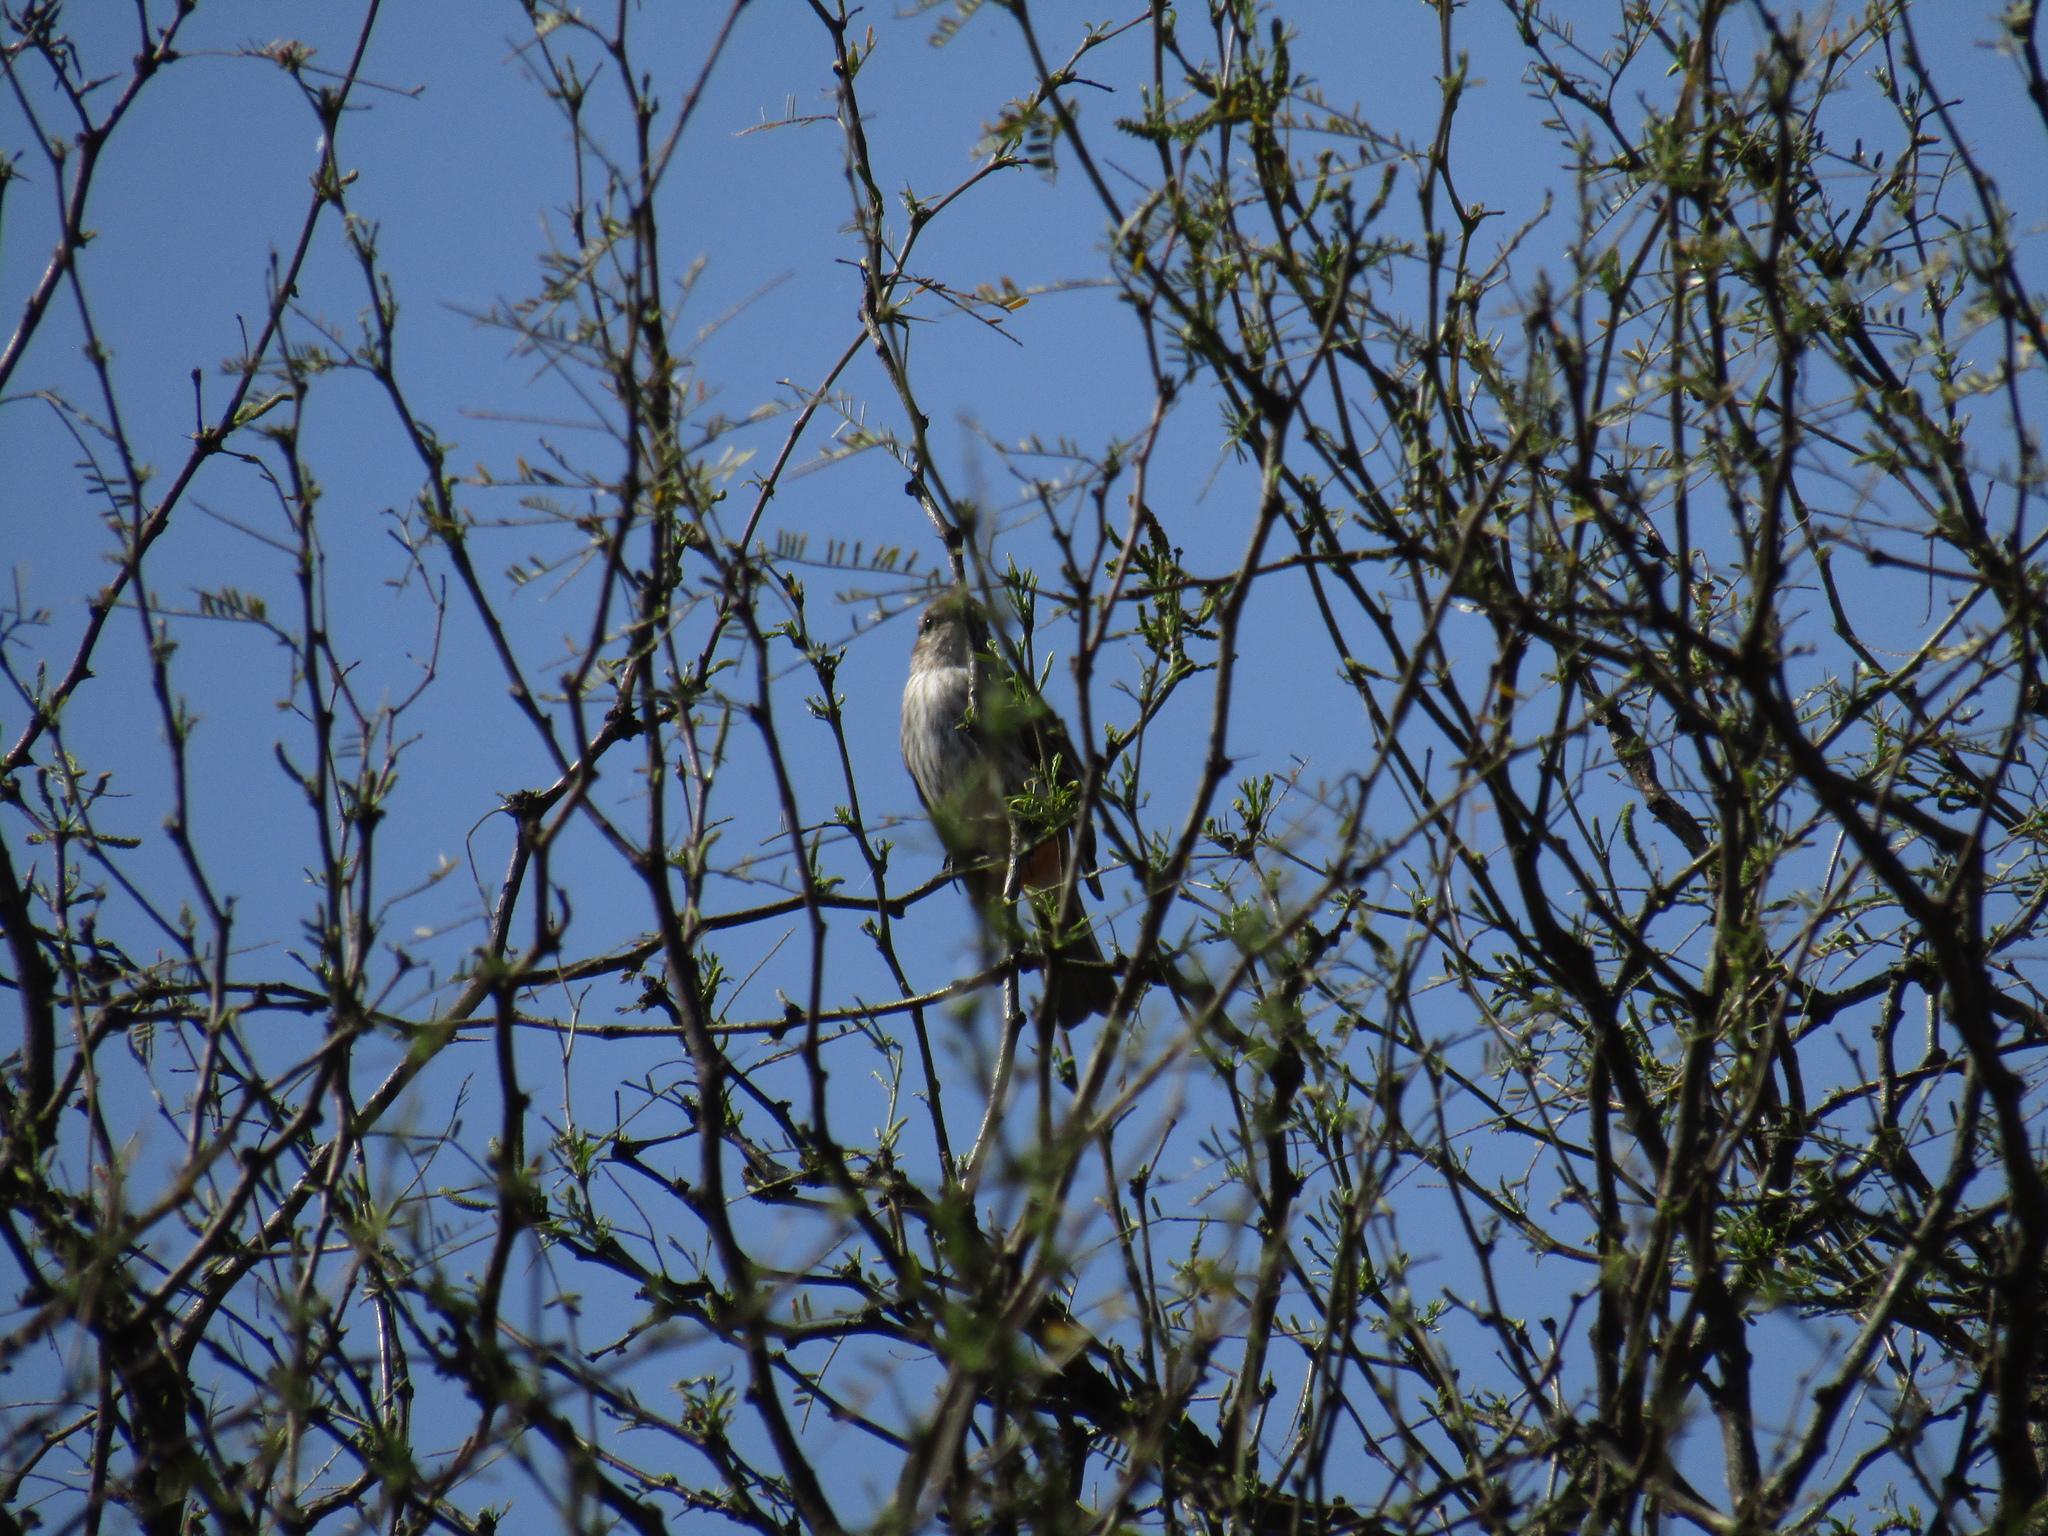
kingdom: Animalia
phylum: Chordata
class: Aves
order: Passeriformes
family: Tyrannidae
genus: Pyrocephalus
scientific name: Pyrocephalus rubinus
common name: Vermilion flycatcher
